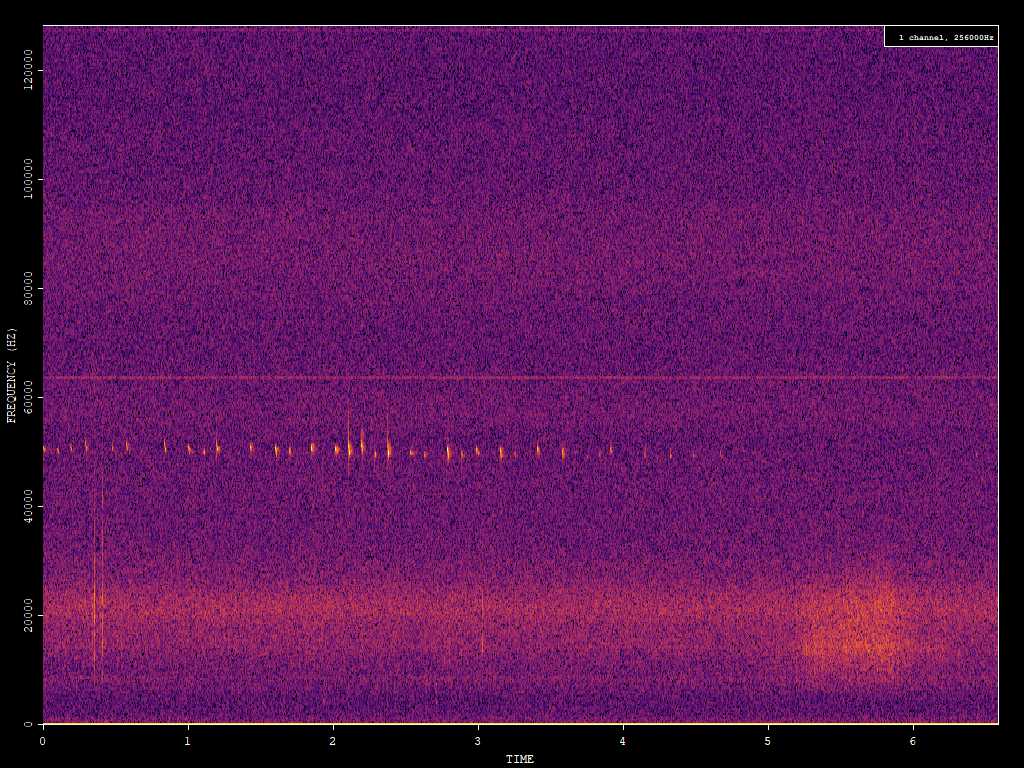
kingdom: Animalia
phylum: Chordata
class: Mammalia
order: Chiroptera
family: Vespertilionidae
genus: Pipistrellus
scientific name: Pipistrellus pygmaeus
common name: Soprano pipistrelle
